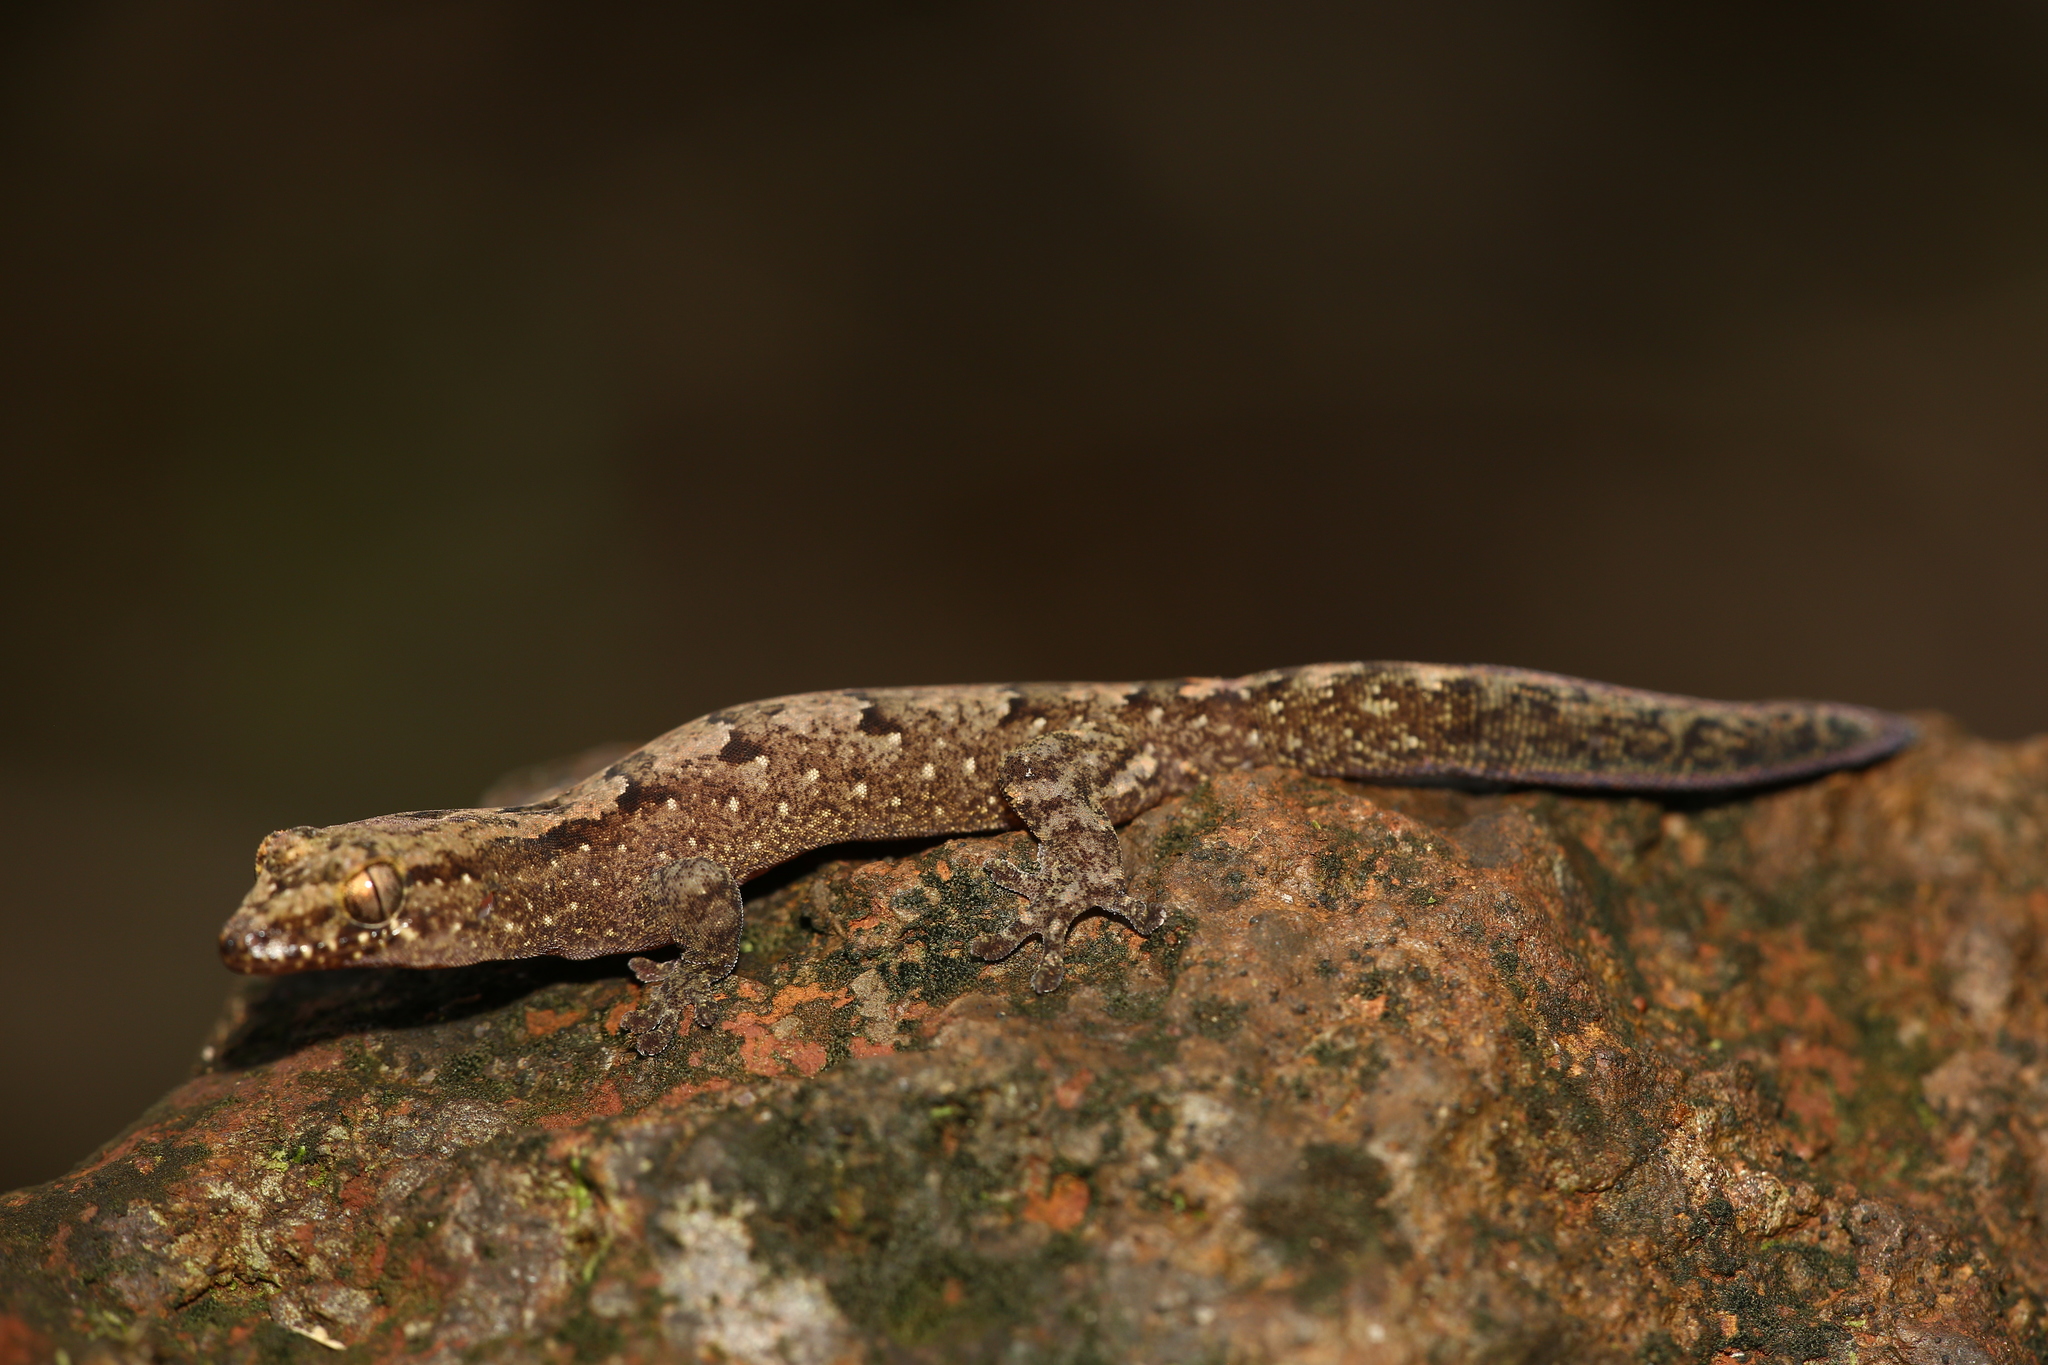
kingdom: Animalia
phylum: Chordata
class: Squamata
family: Diplodactylidae
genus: Bavayia
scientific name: Bavayia sauvagii
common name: Sauvage's new caledonian gecko
